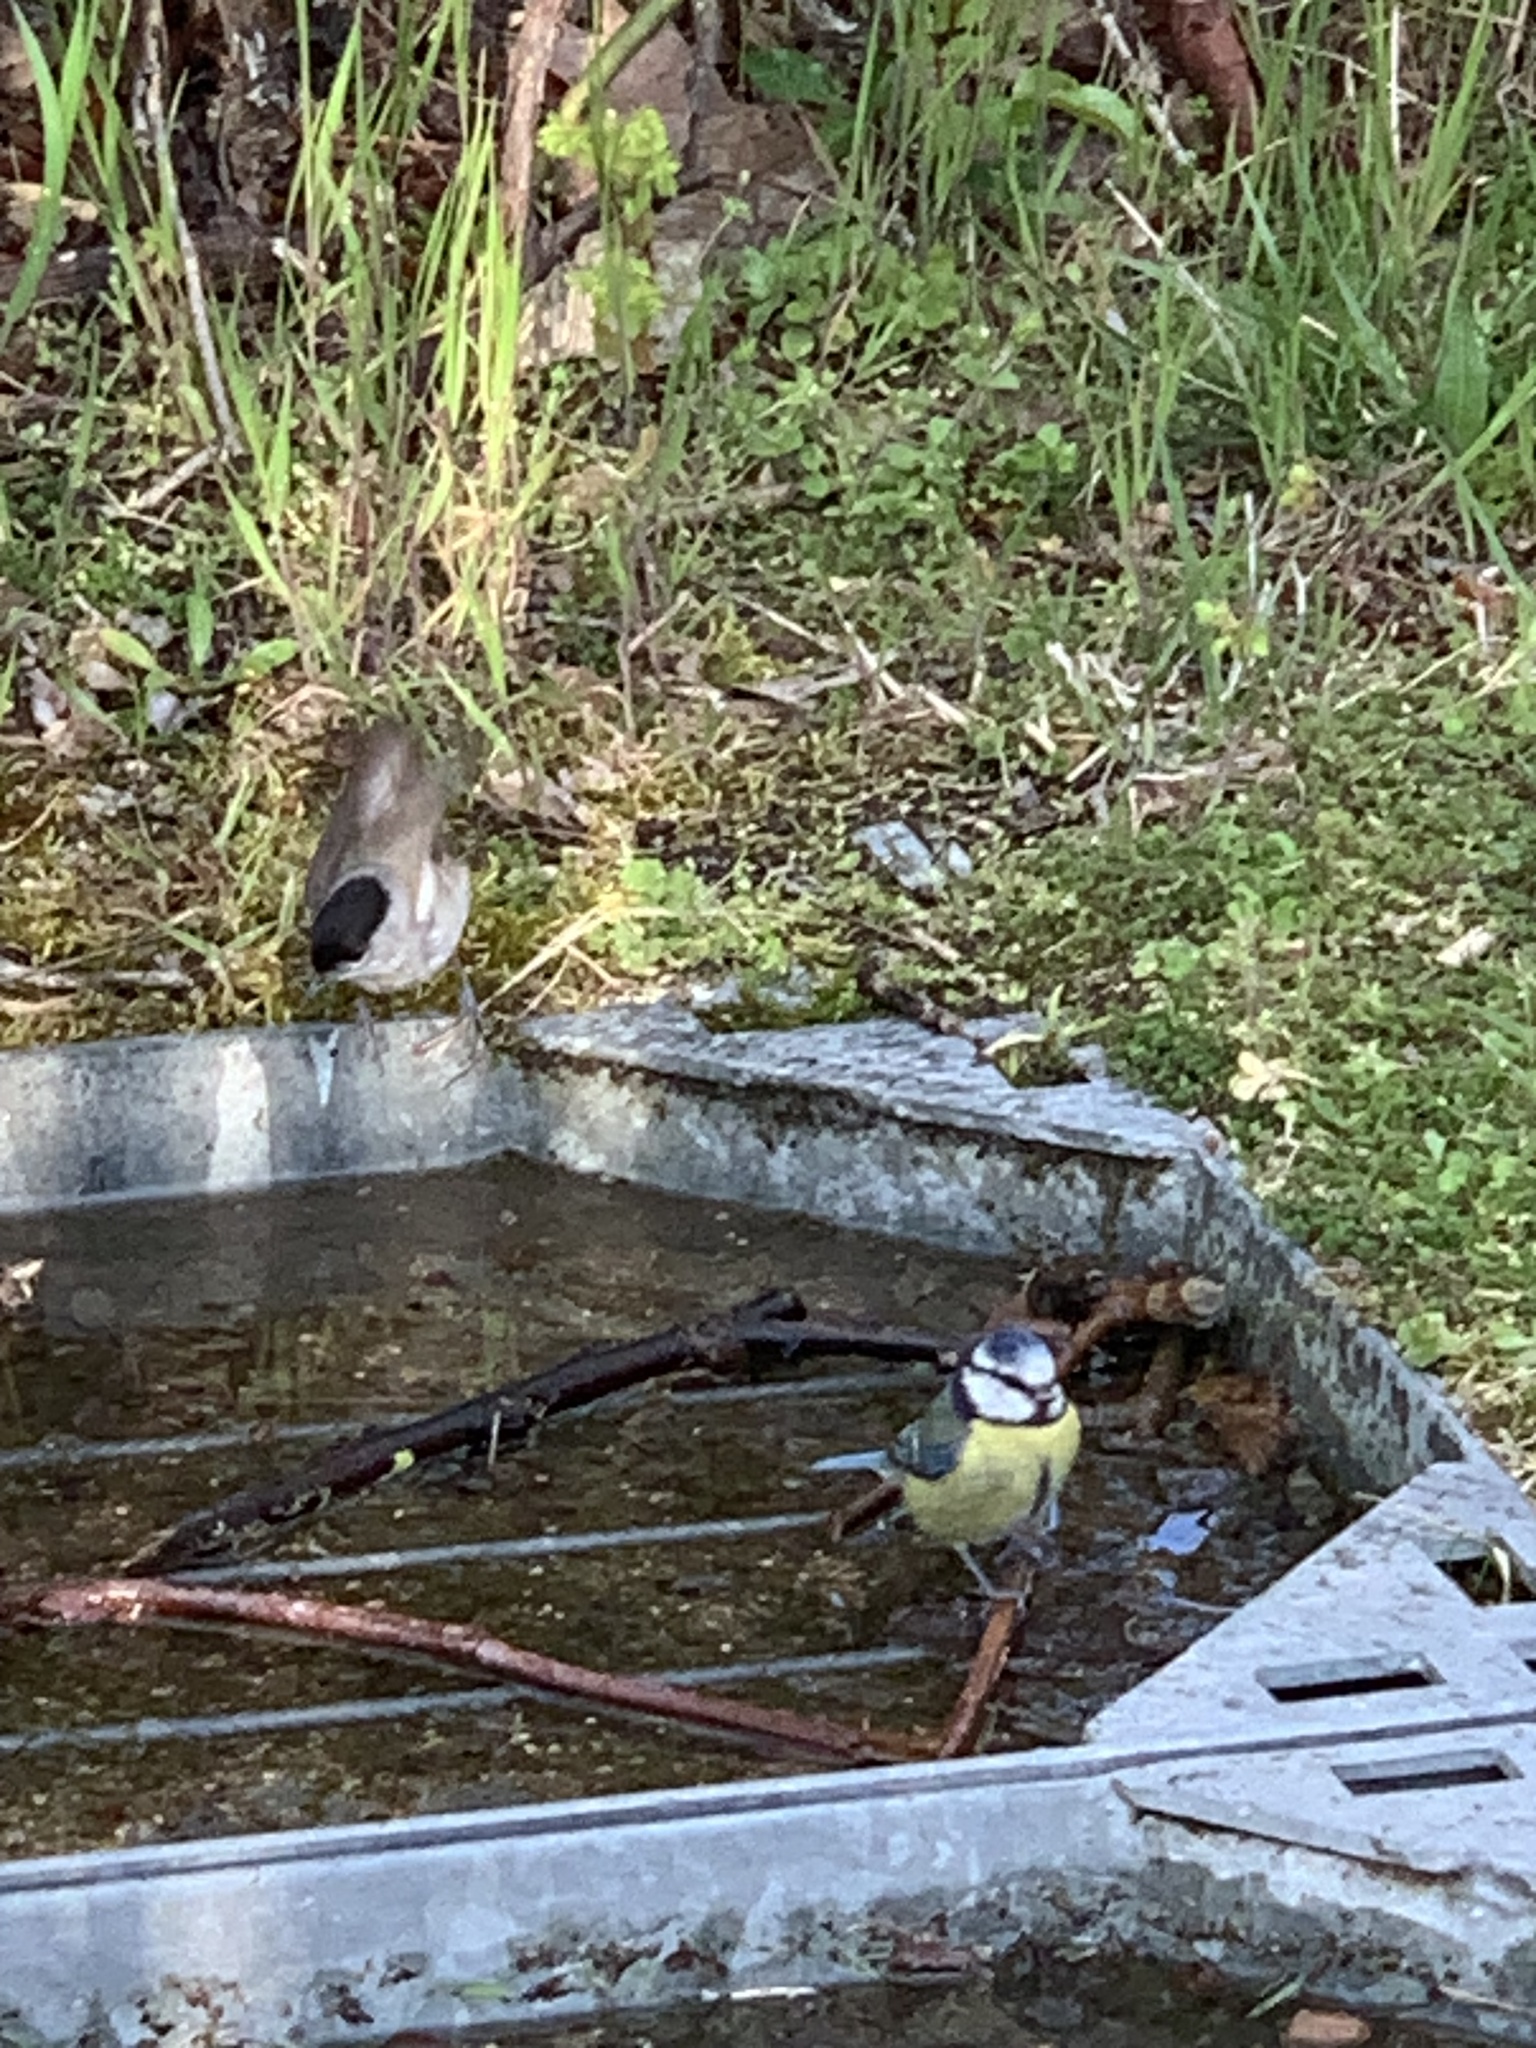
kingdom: Animalia
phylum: Chordata
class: Aves
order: Passeriformes
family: Paridae
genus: Cyanistes
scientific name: Cyanistes caeruleus
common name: Eurasian blue tit
